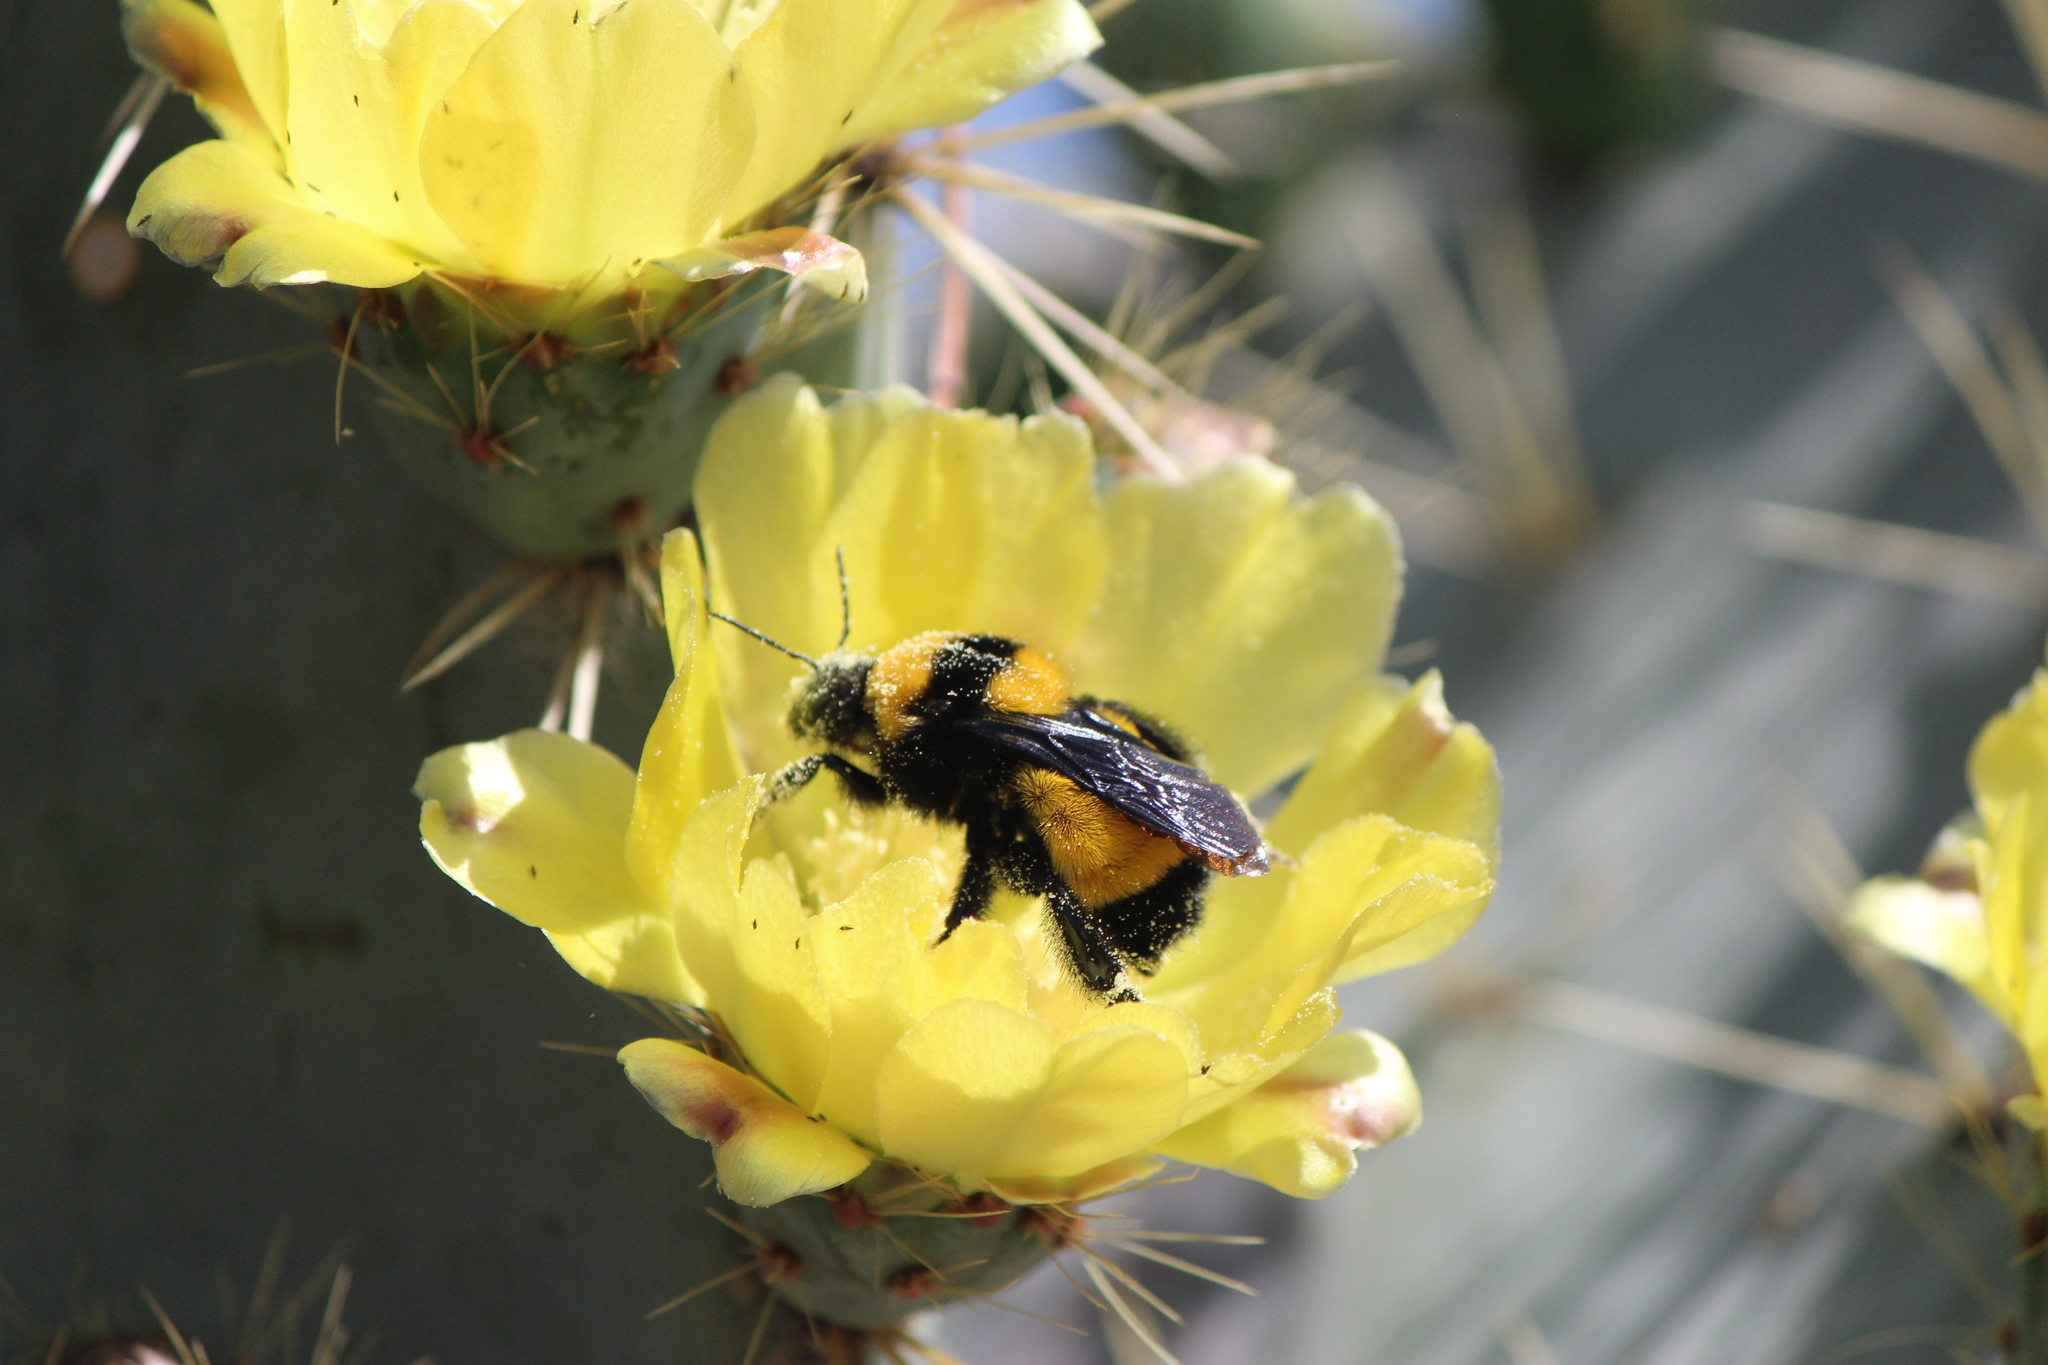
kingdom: Animalia
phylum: Arthropoda
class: Insecta
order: Hymenoptera
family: Apidae
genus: Bombus
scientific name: Bombus sonorus
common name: Sonoran bumble bee
